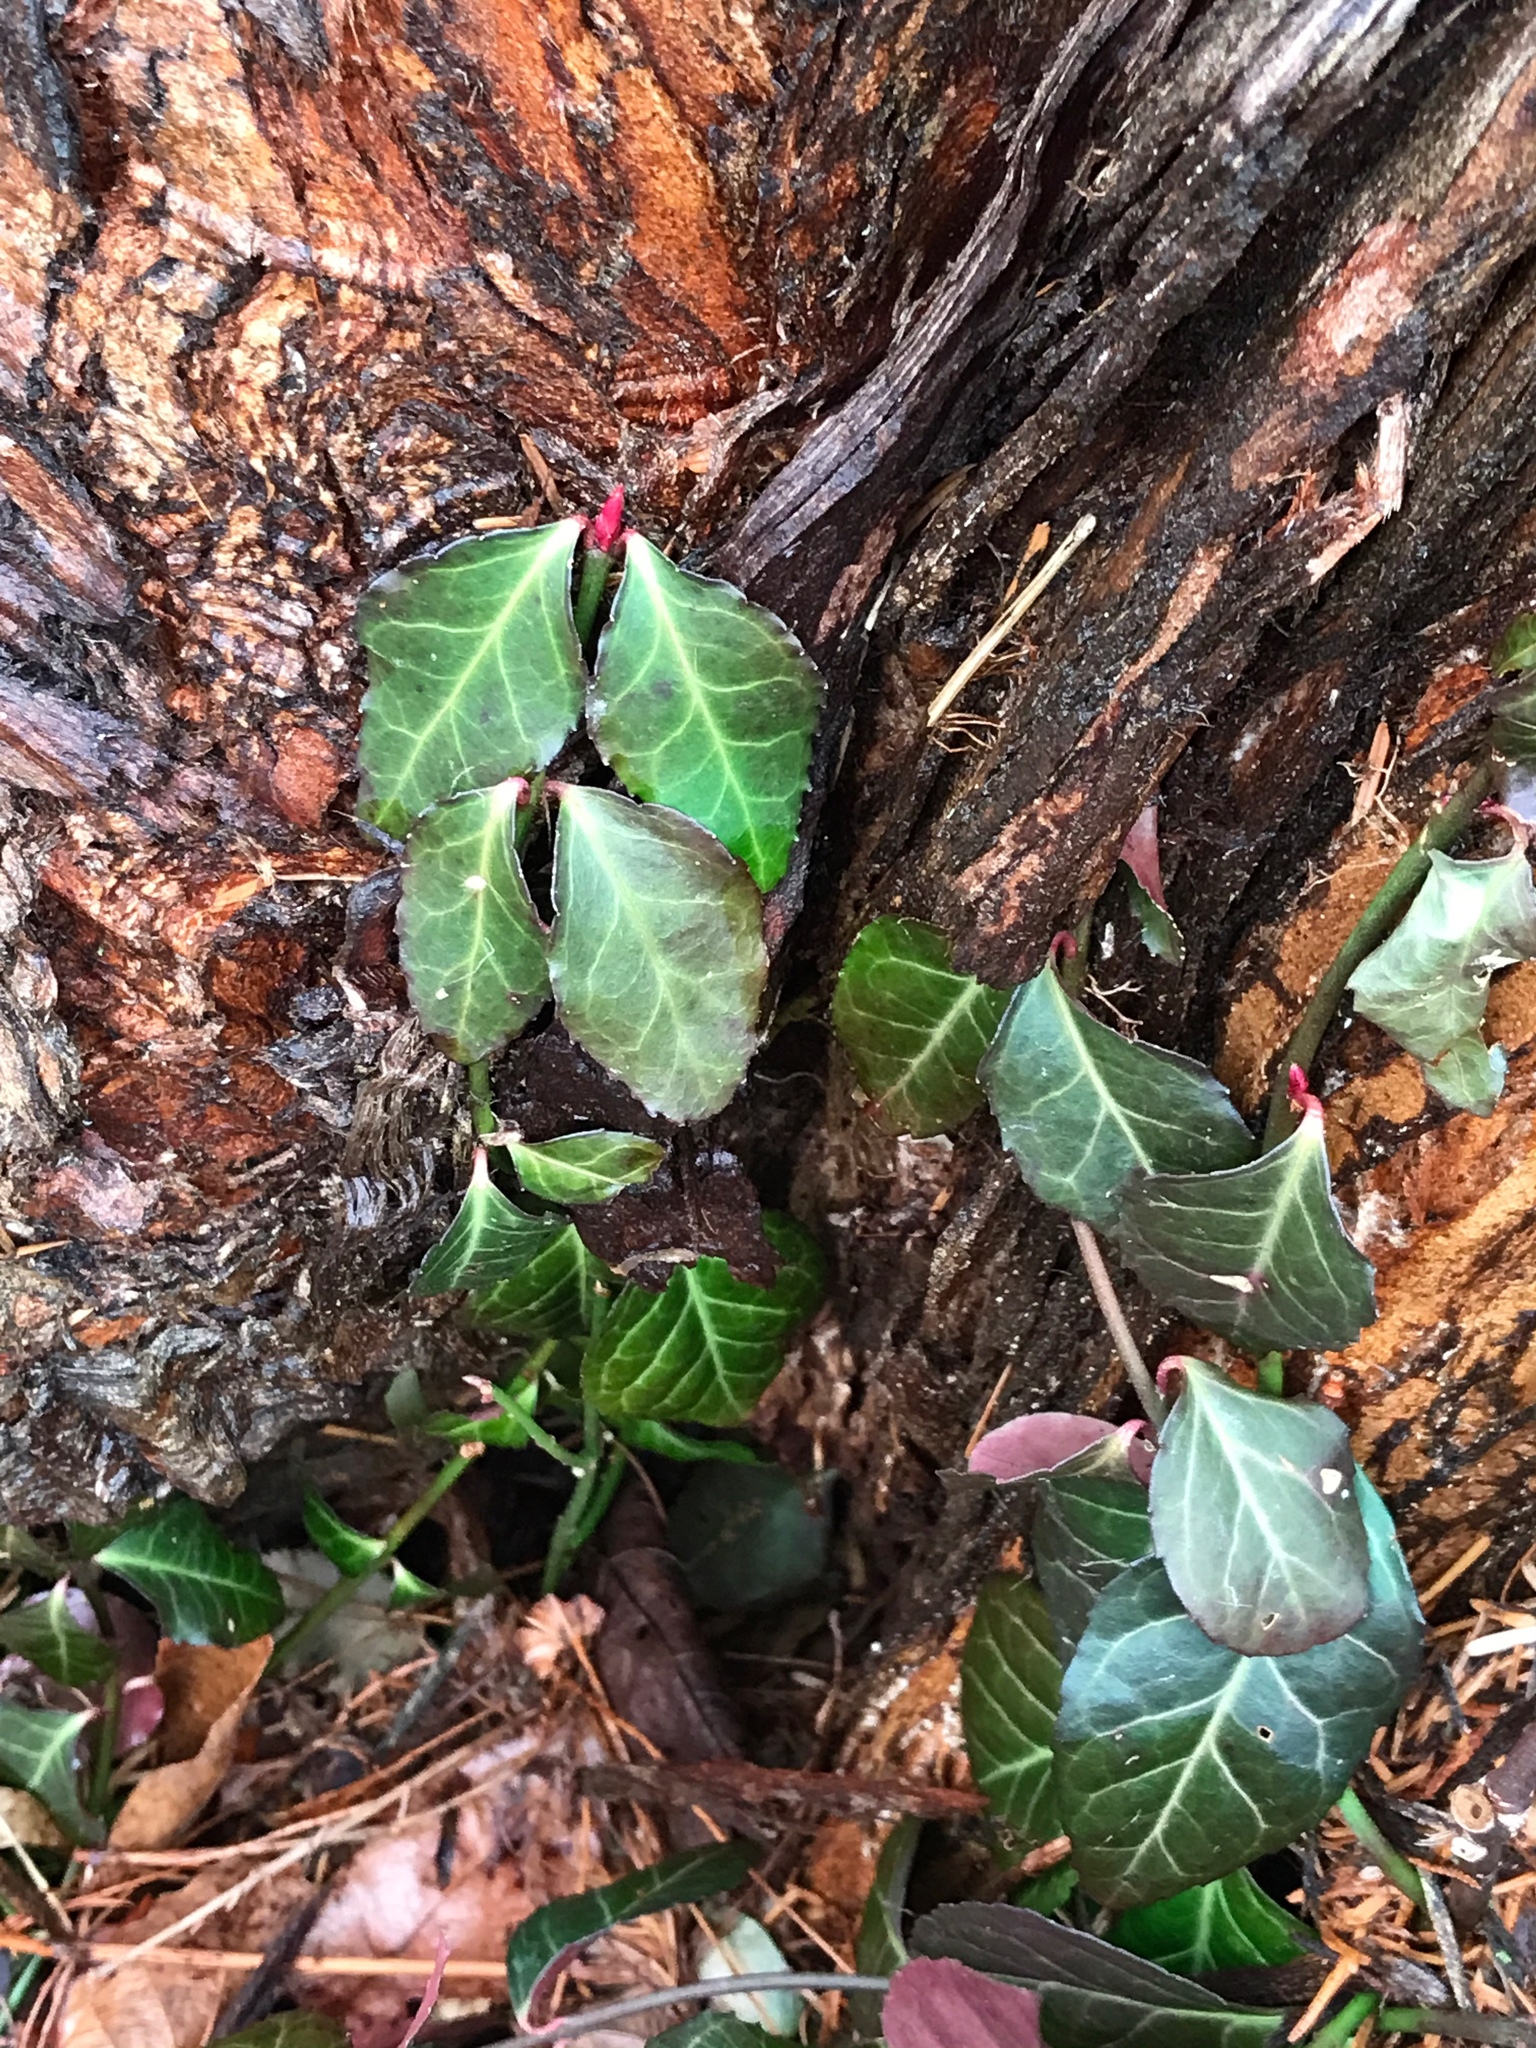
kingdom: Plantae
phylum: Tracheophyta
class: Magnoliopsida
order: Celastrales
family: Celastraceae
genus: Euonymus
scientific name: Euonymus fortunei
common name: Climbing euonymus
